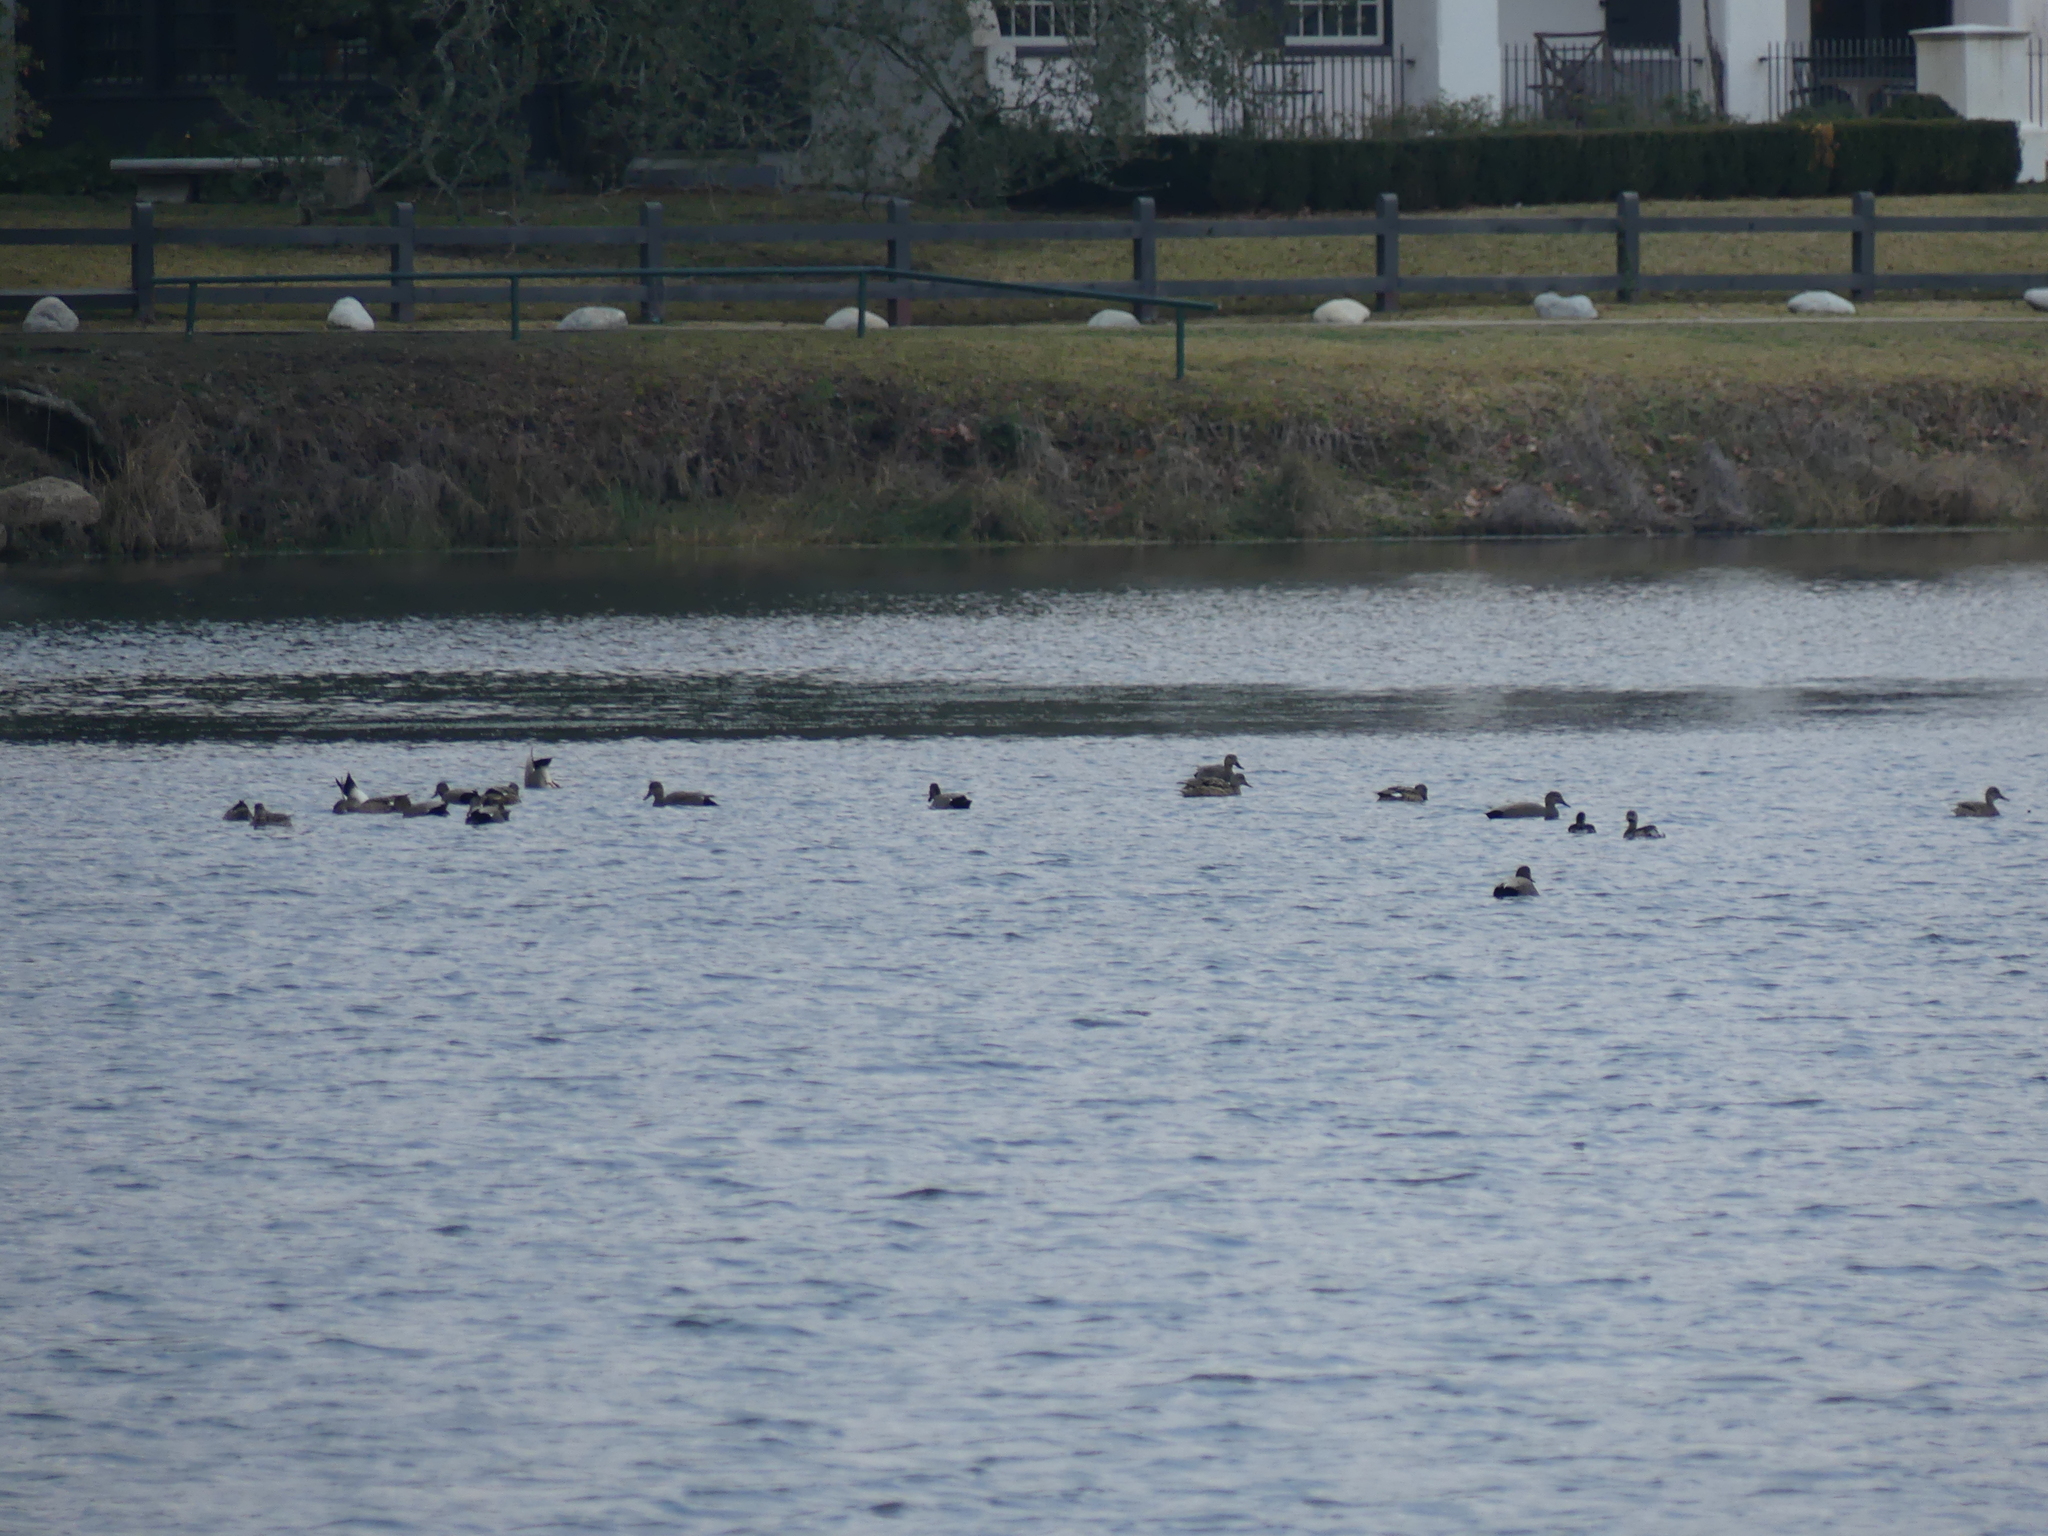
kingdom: Animalia
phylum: Chordata
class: Aves
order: Anseriformes
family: Anatidae
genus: Mareca
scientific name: Mareca strepera
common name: Gadwall
